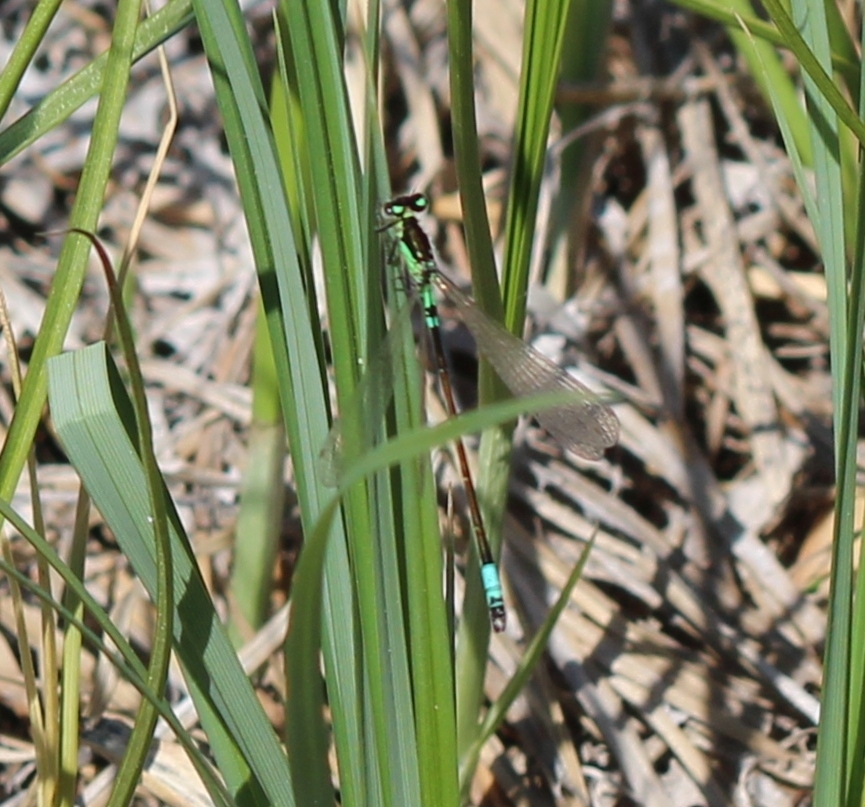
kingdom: Animalia
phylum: Arthropoda
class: Insecta
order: Odonata
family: Coenagrionidae
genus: Coenagrion
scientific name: Coenagrion armatum
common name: Dark bluet
